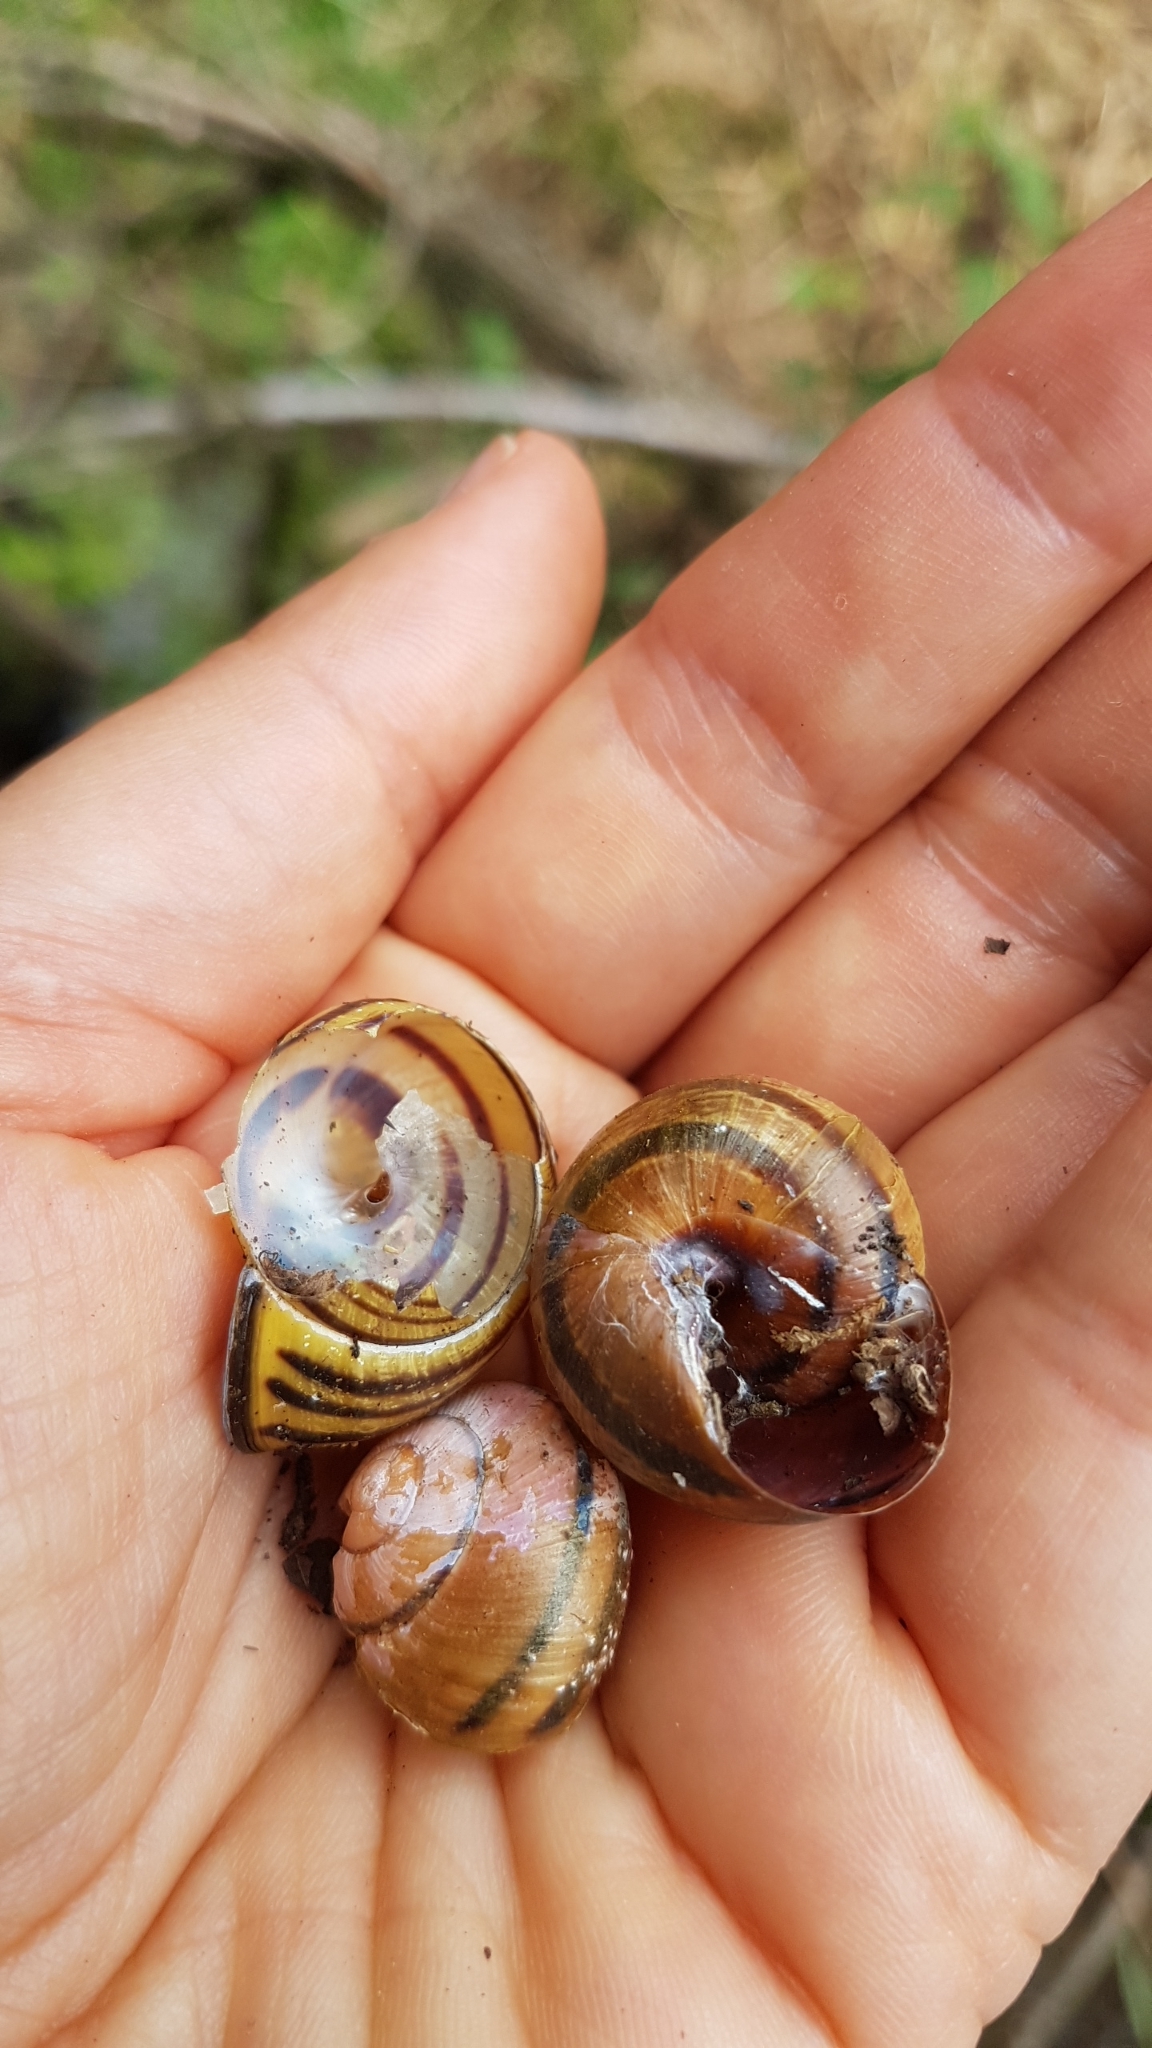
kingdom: Animalia
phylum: Mollusca
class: Gastropoda
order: Stylommatophora
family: Helicidae
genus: Cepaea
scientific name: Cepaea nemoralis
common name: Grovesnail
